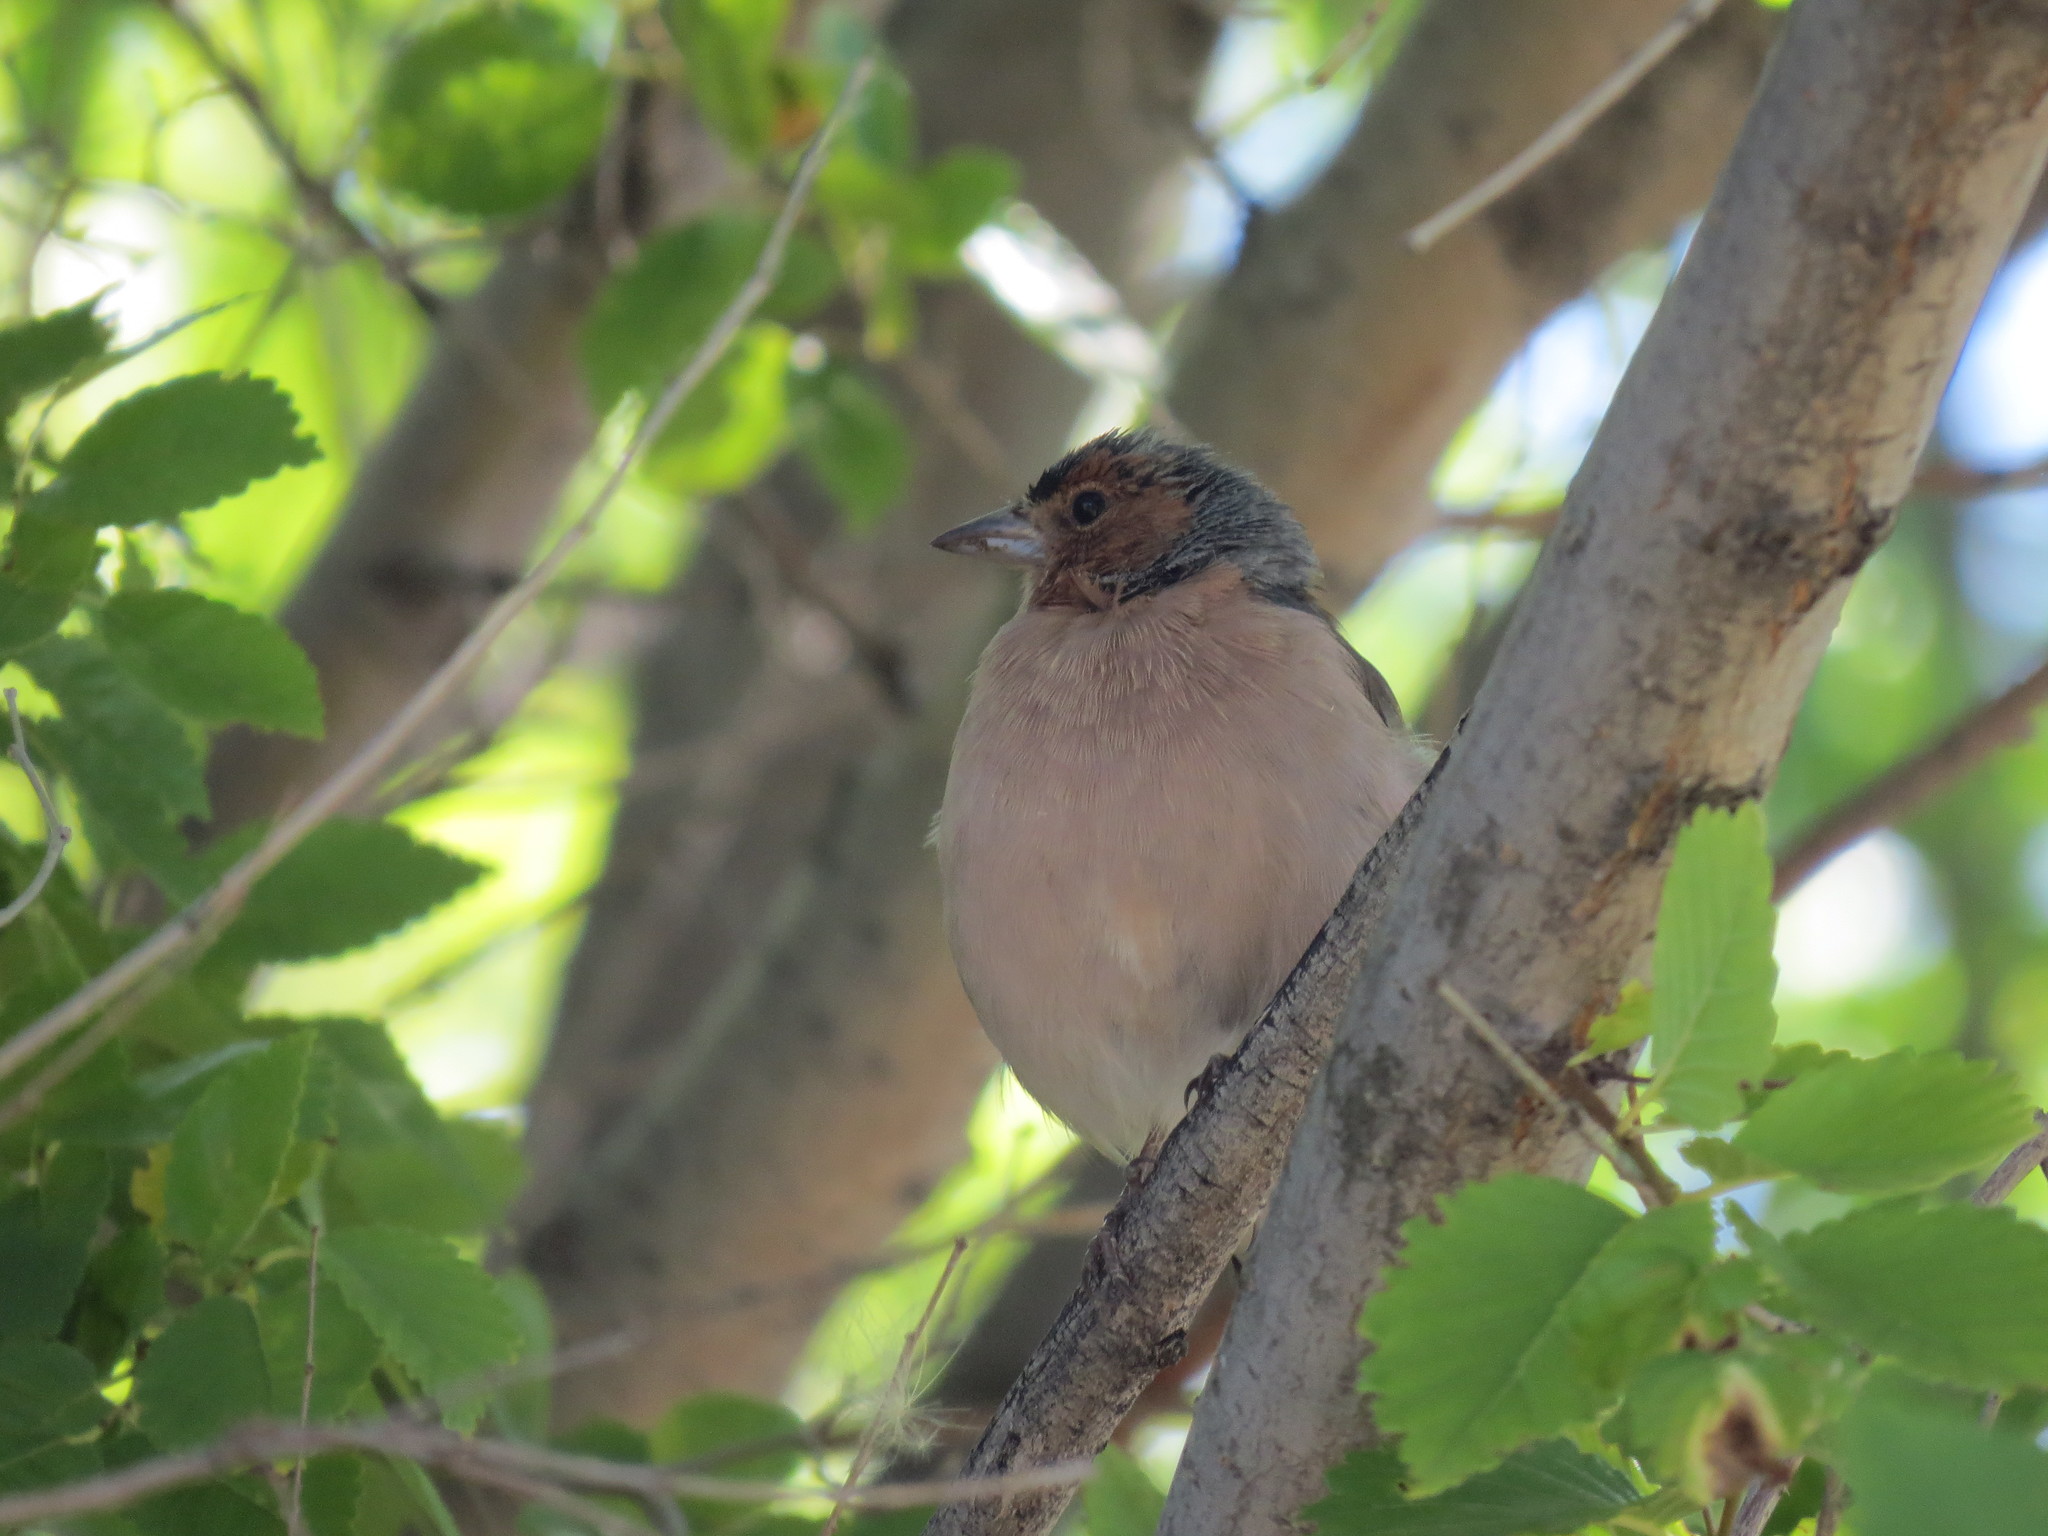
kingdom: Animalia
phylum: Chordata
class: Aves
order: Passeriformes
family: Fringillidae
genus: Fringilla
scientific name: Fringilla coelebs
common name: Common chaffinch
